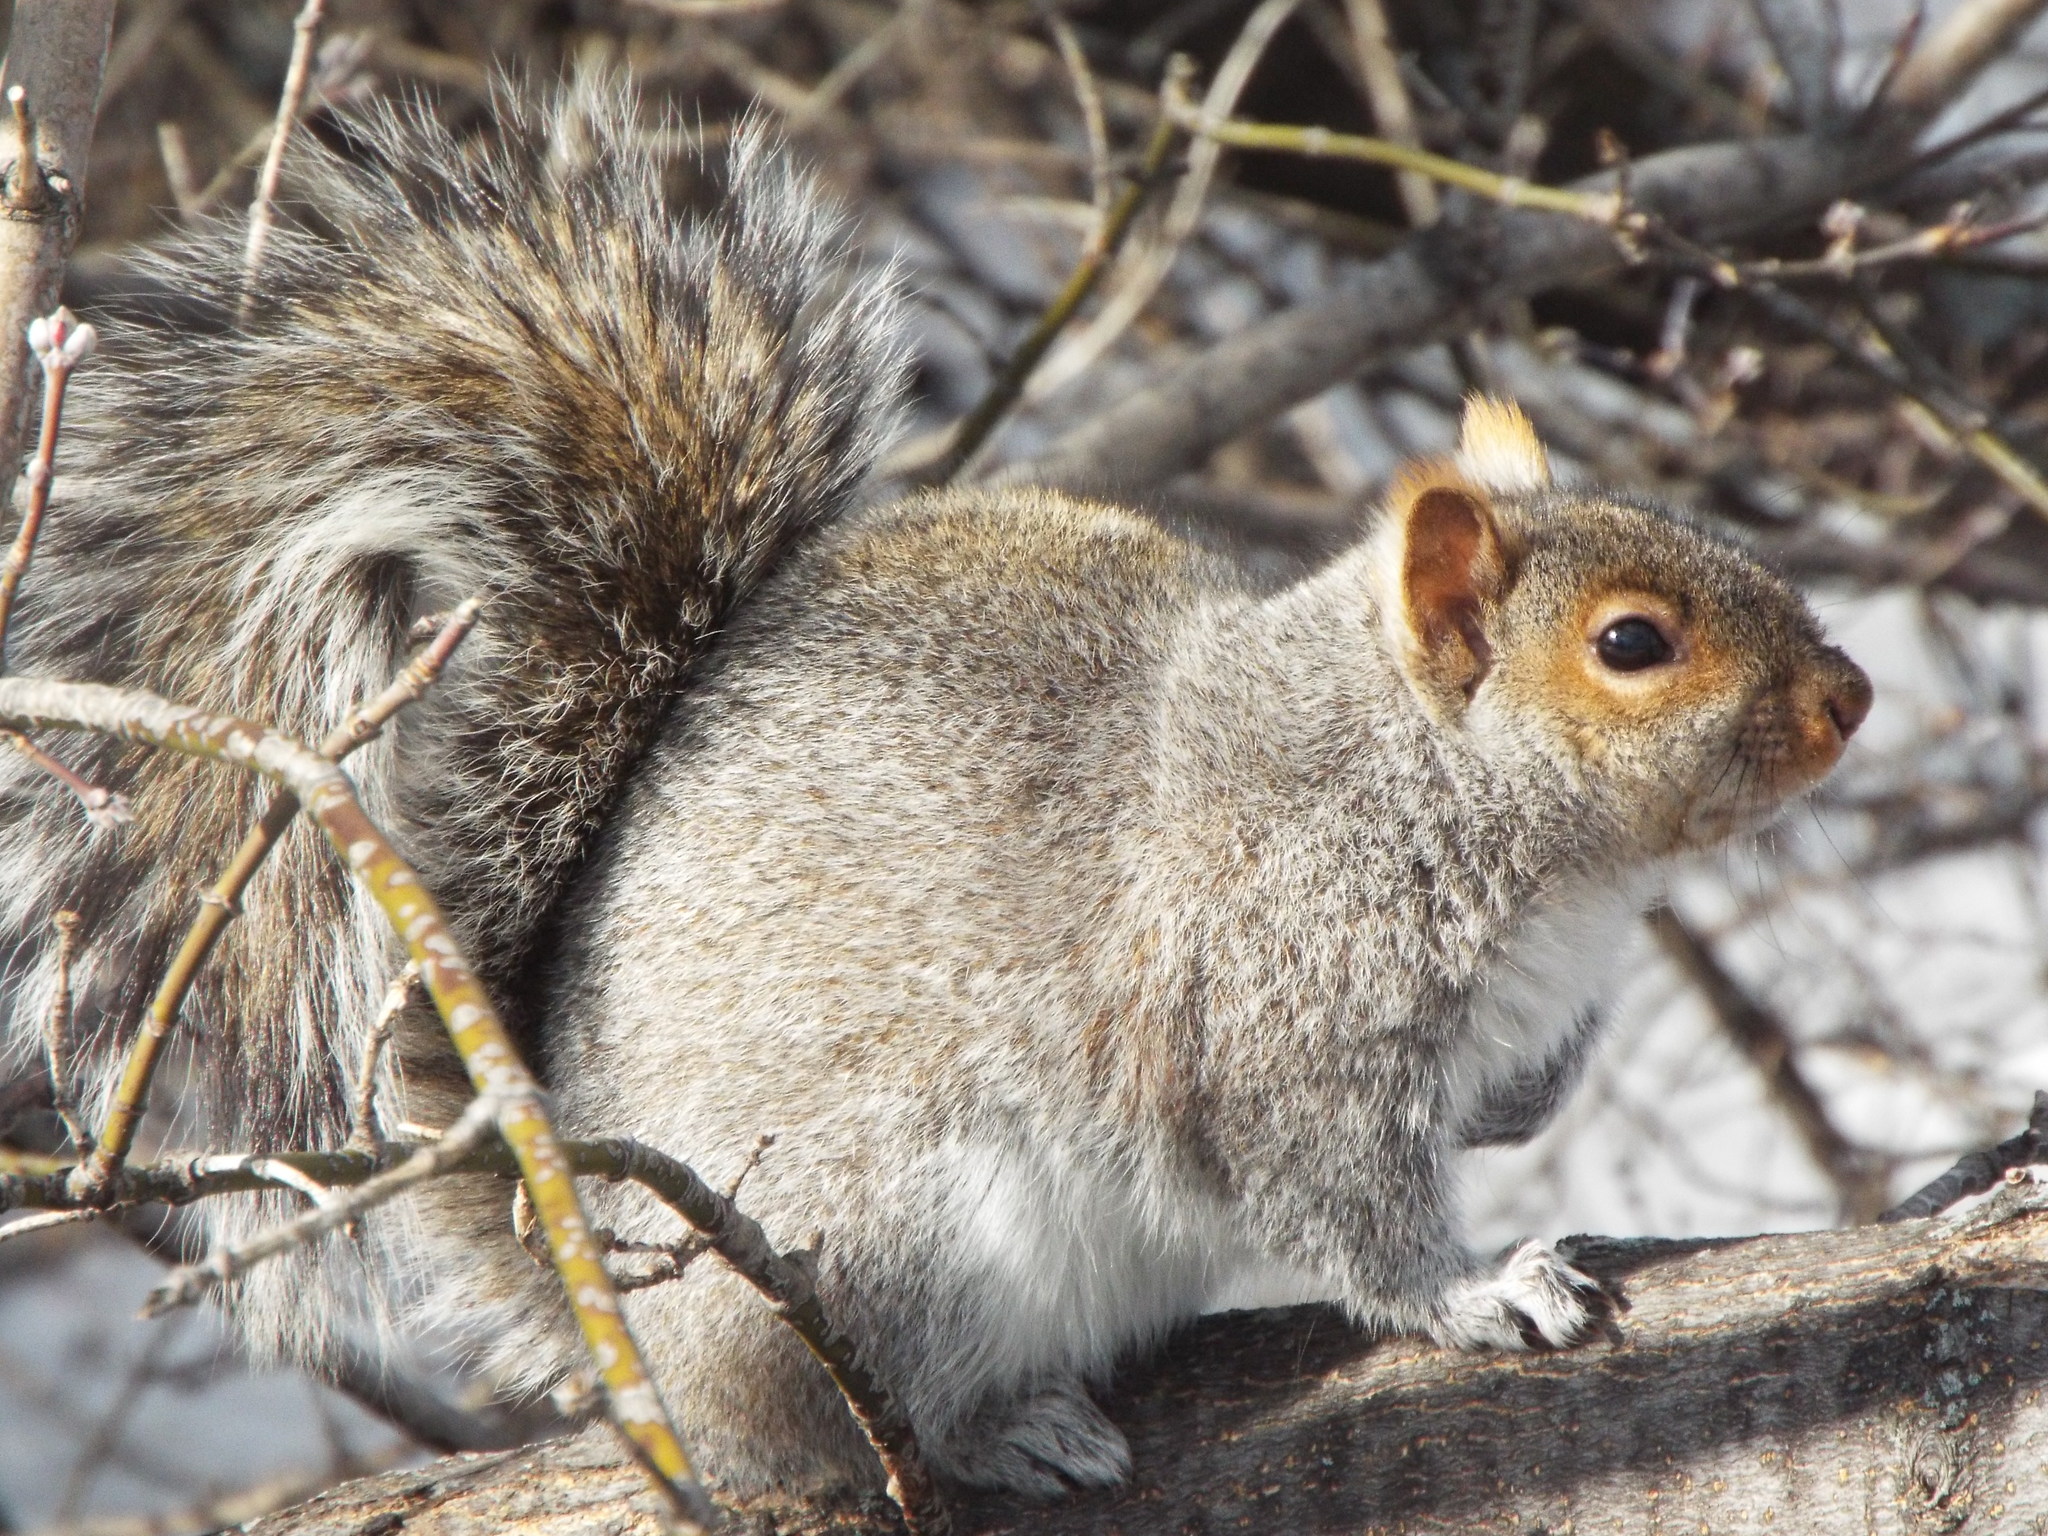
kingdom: Animalia
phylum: Chordata
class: Mammalia
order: Rodentia
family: Sciuridae
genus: Sciurus
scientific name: Sciurus carolinensis
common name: Eastern gray squirrel
